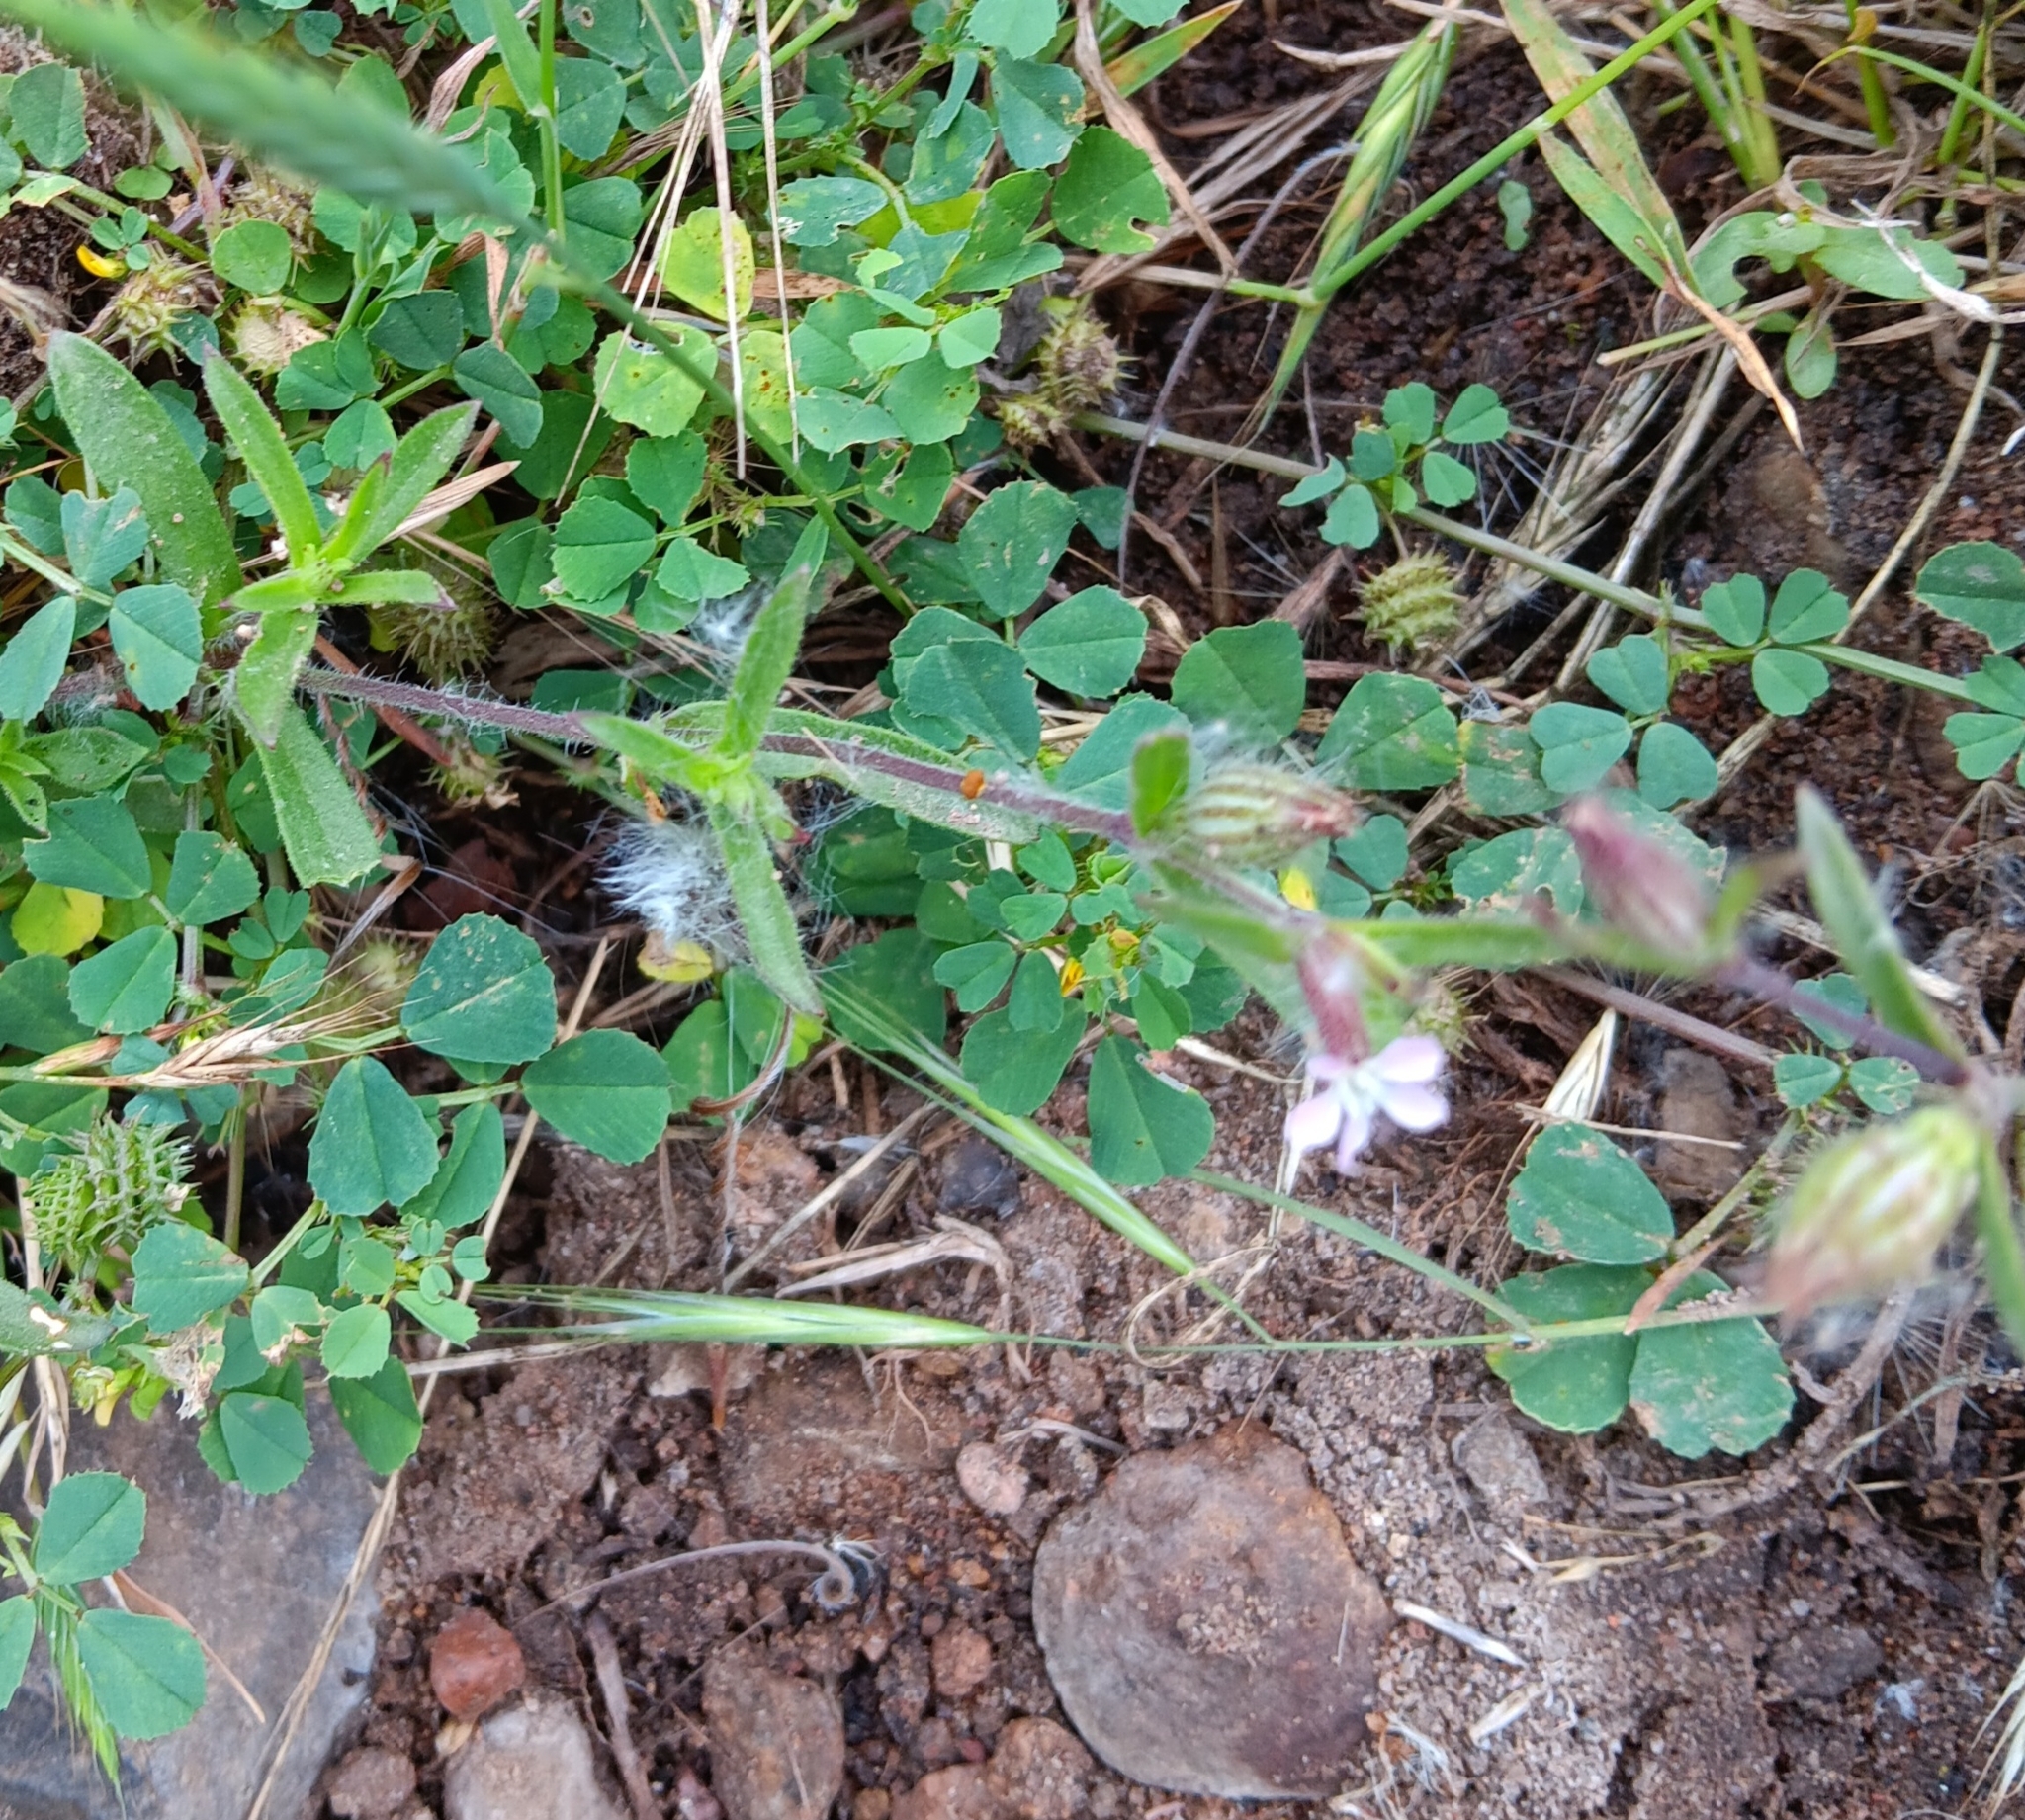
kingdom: Plantae
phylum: Tracheophyta
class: Magnoliopsida
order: Caryophyllales
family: Caryophyllaceae
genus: Silene
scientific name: Silene gallica
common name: Small-flowered catchfly
